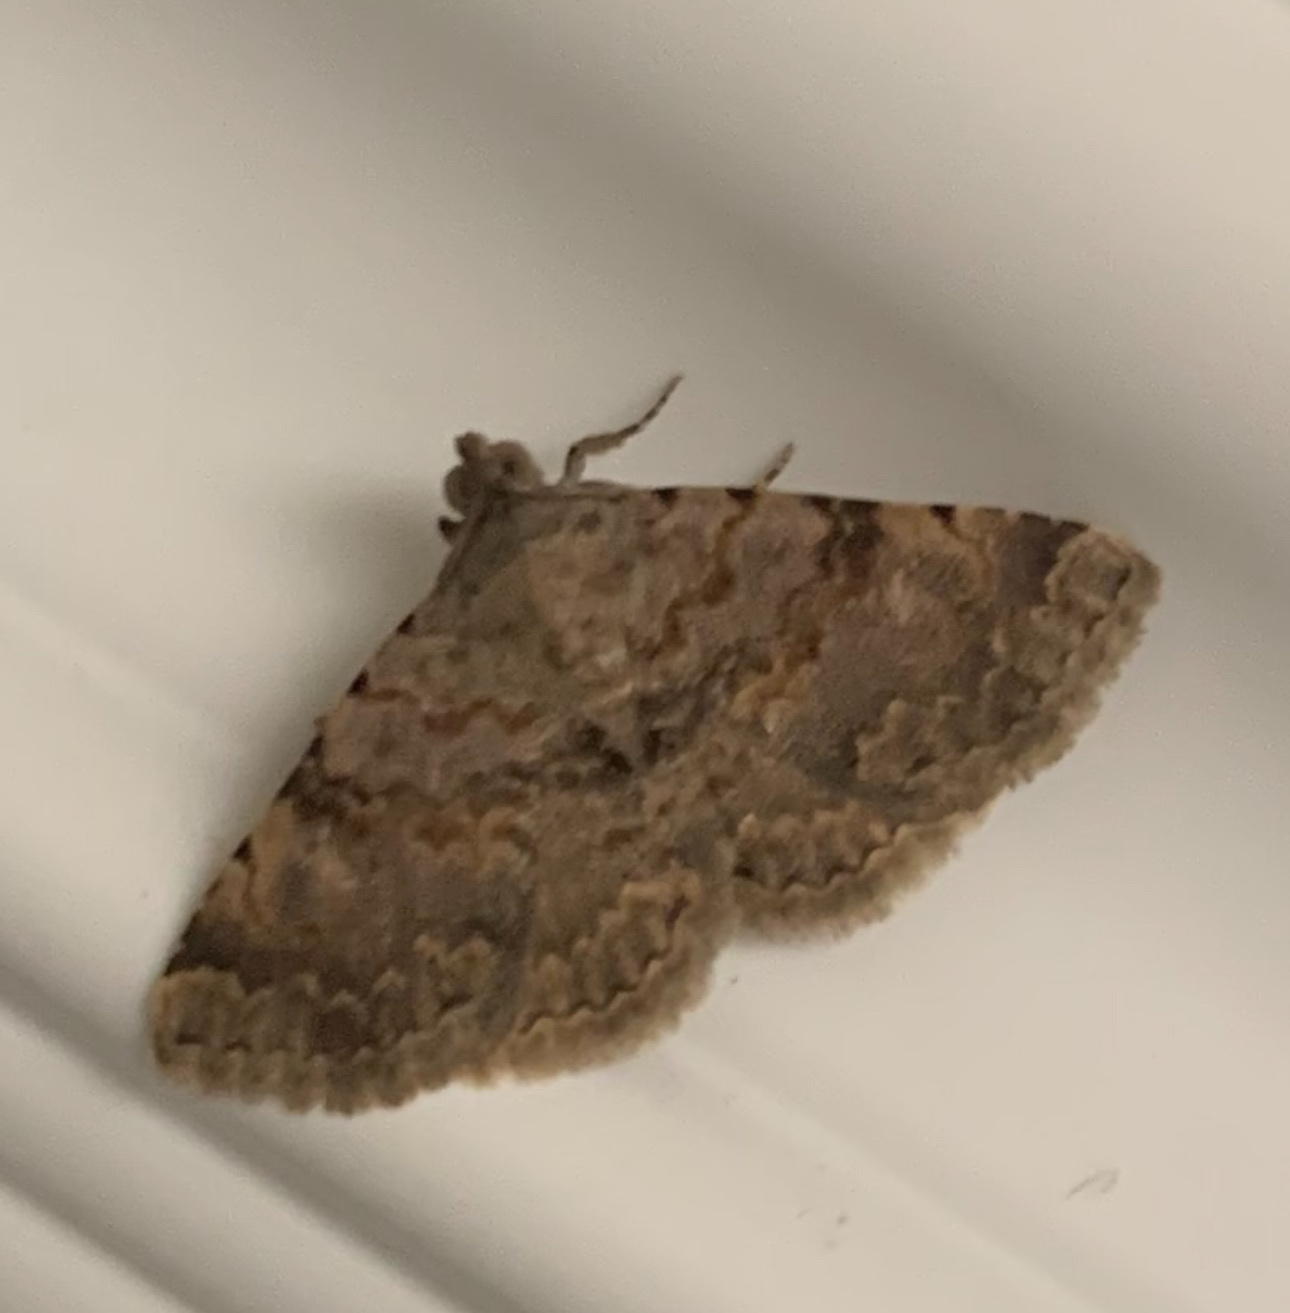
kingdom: Animalia
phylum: Arthropoda
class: Insecta
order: Lepidoptera
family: Geometridae
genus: Archirhoe
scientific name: Archirhoe neomexicana
